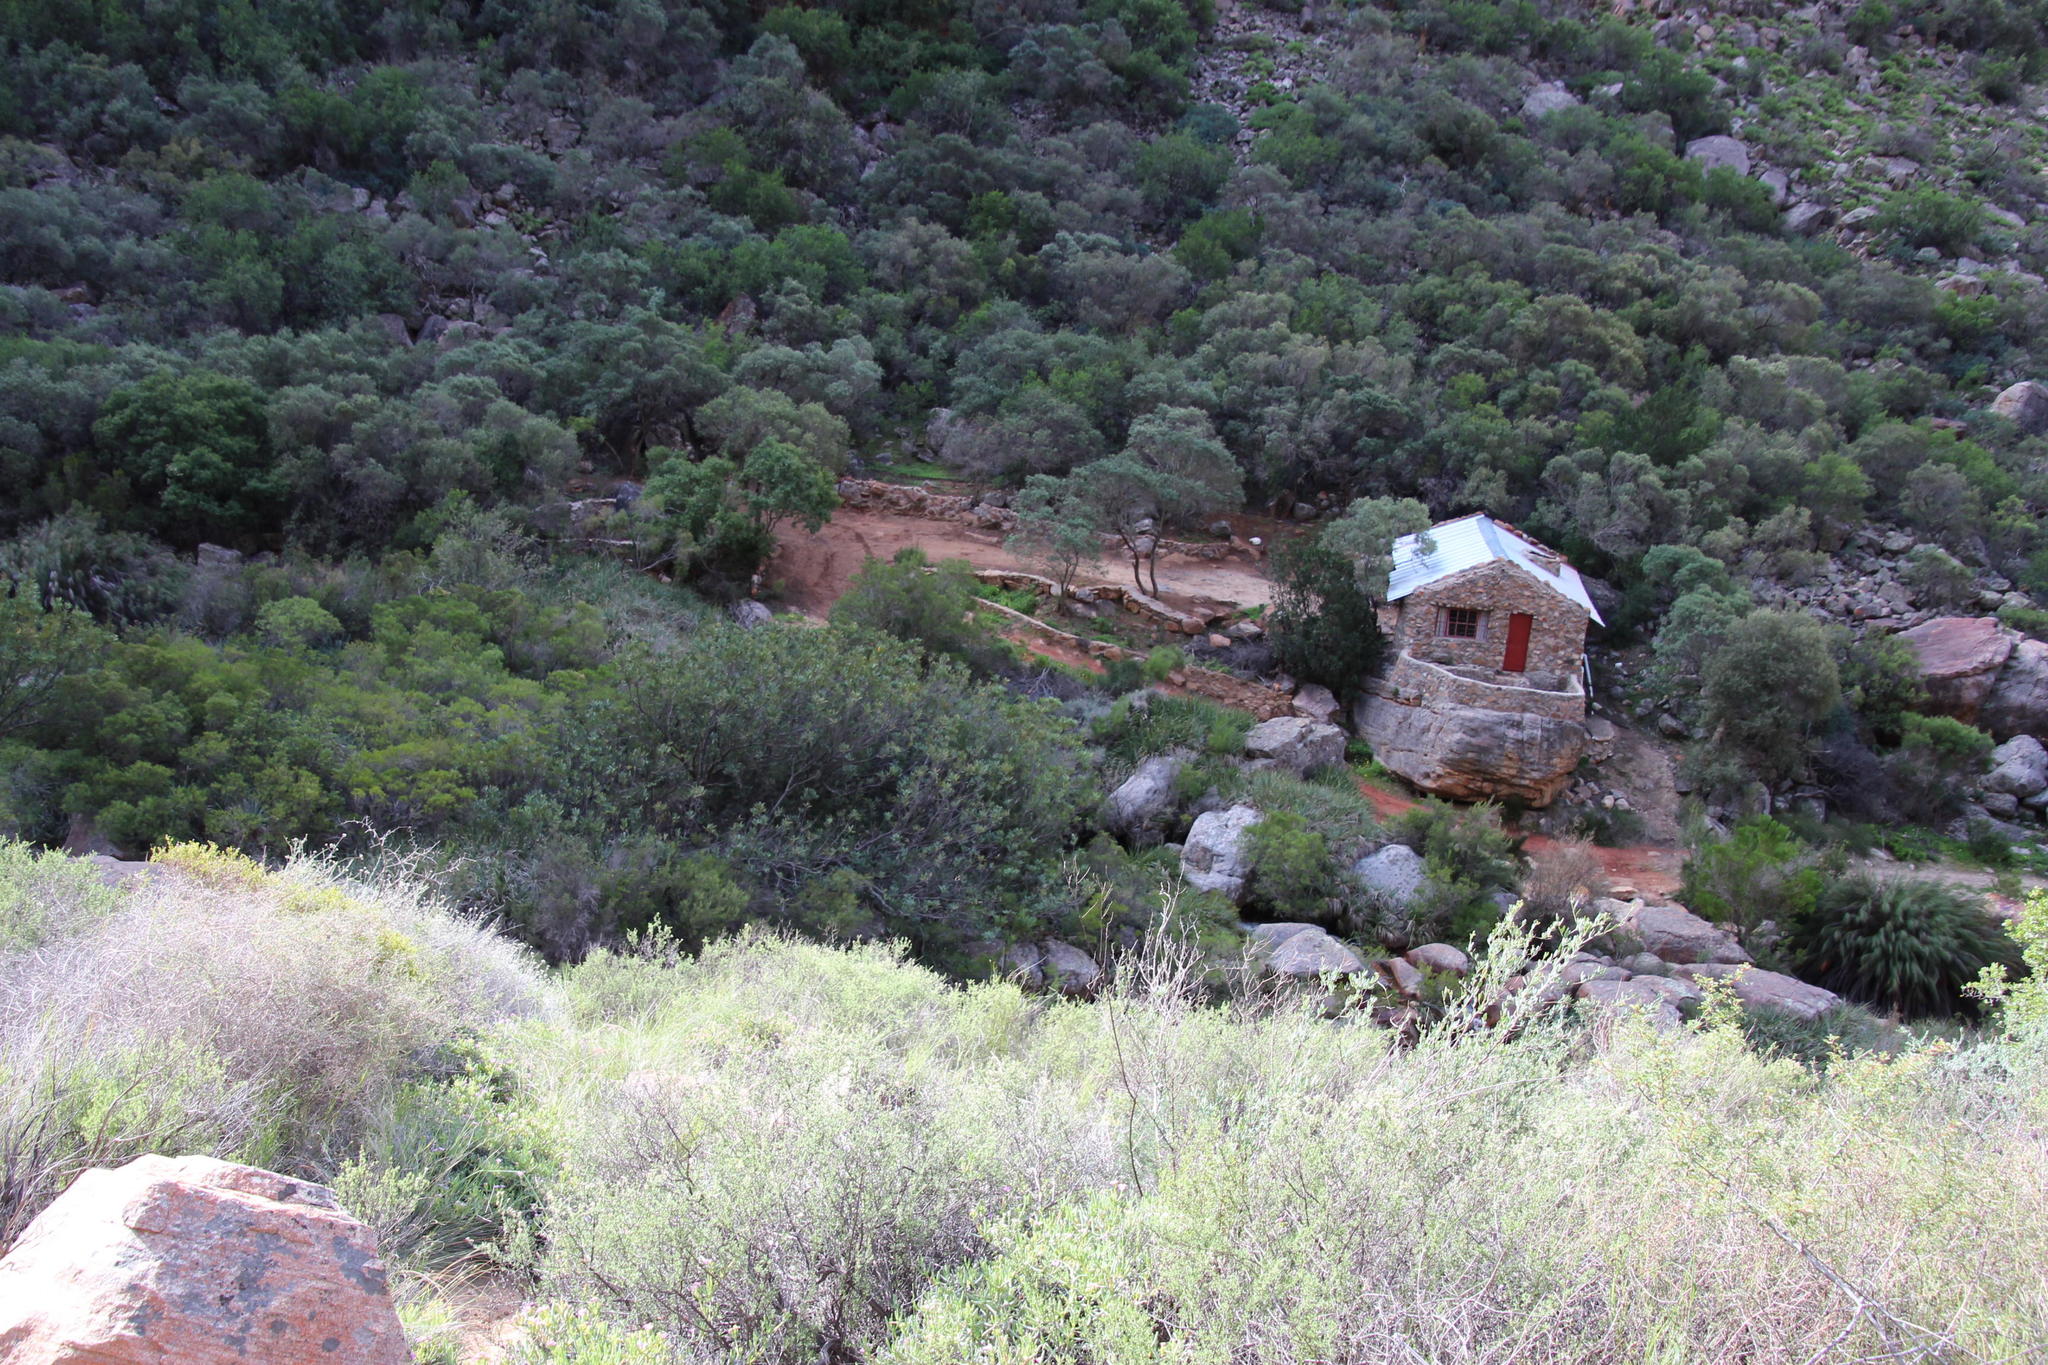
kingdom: Plantae
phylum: Tracheophyta
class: Magnoliopsida
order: Proteales
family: Proteaceae
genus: Brabejum
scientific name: Brabejum stellatifolium
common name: Wild almond
